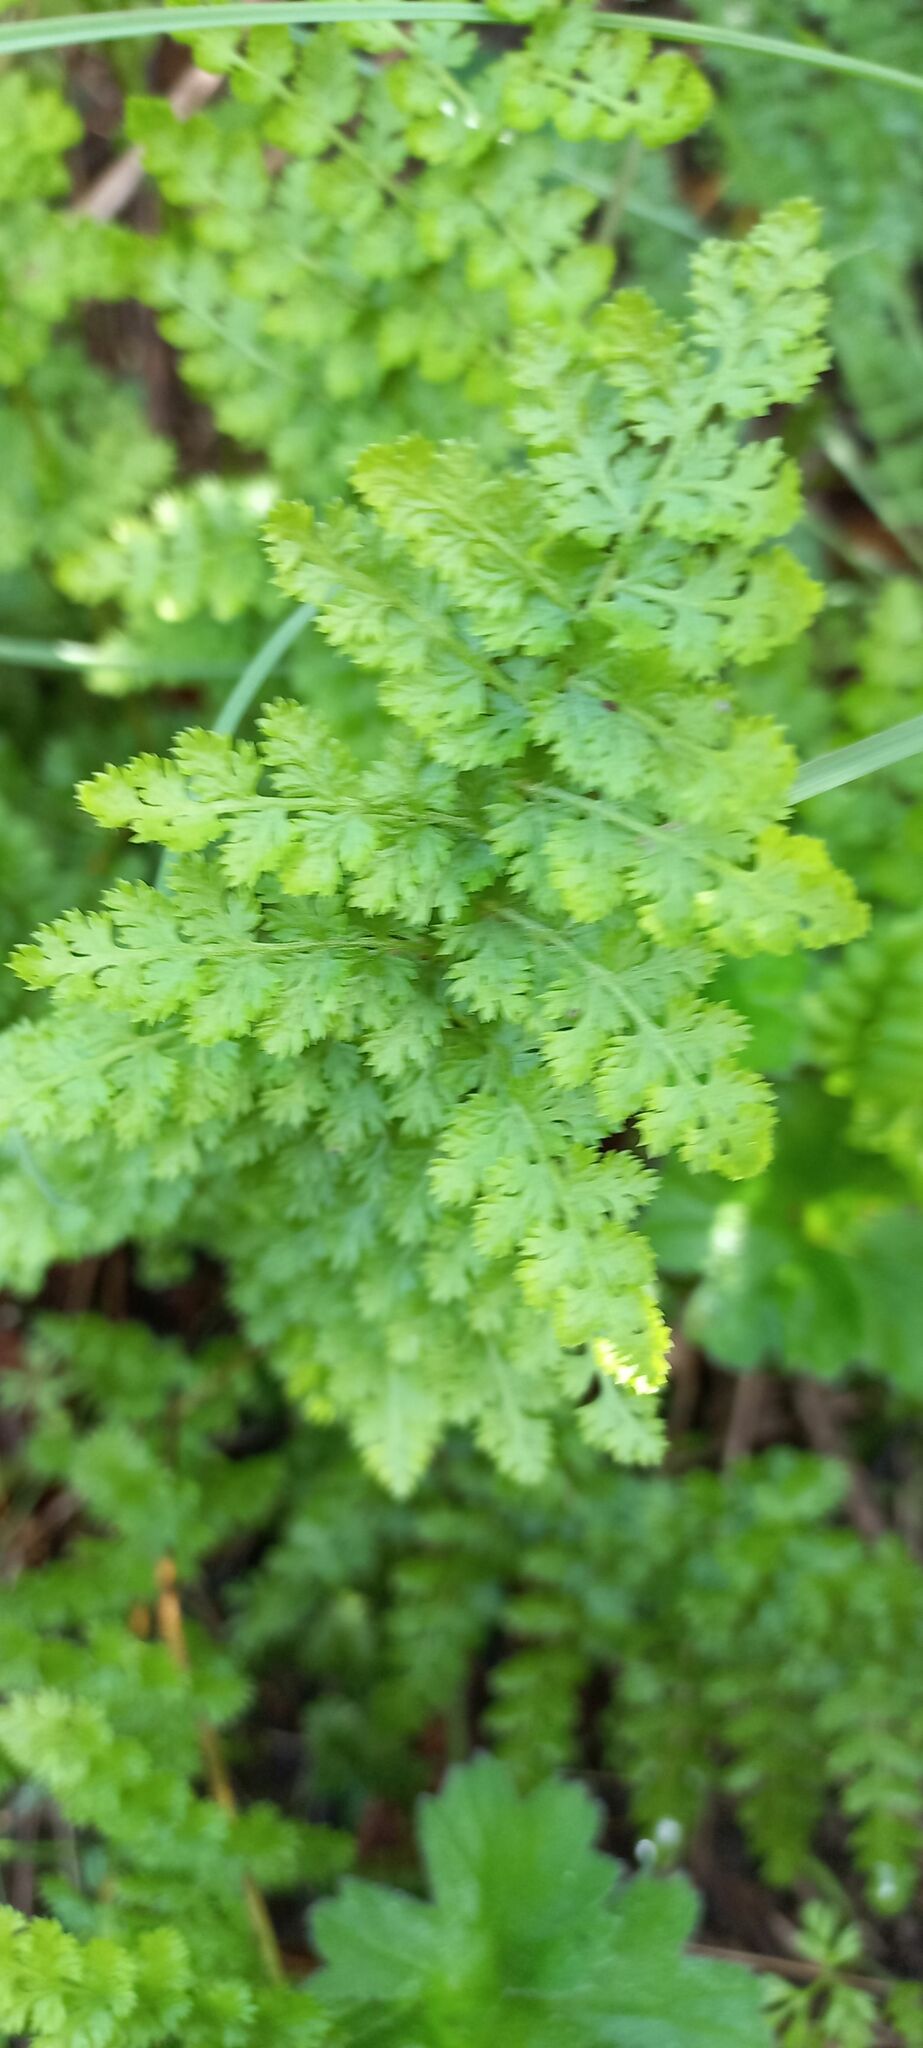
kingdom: Plantae
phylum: Tracheophyta
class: Polypodiopsida
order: Schizaeales
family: Anemiaceae
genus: Anemia
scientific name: Anemia caffrorum
